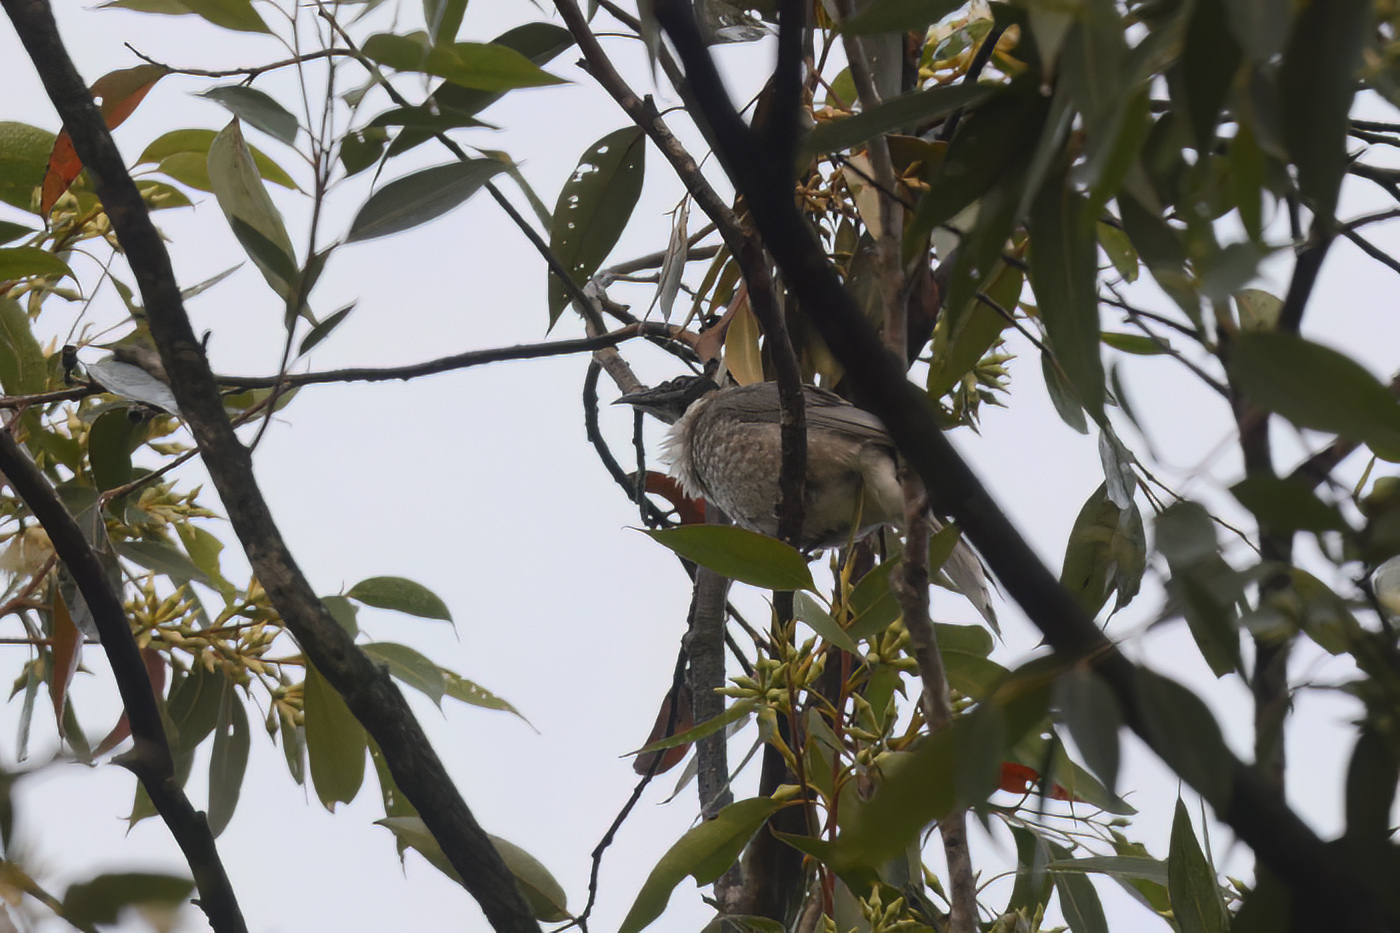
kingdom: Animalia
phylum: Chordata
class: Aves
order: Passeriformes
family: Meliphagidae
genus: Philemon
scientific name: Philemon corniculatus
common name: Noisy friarbird
